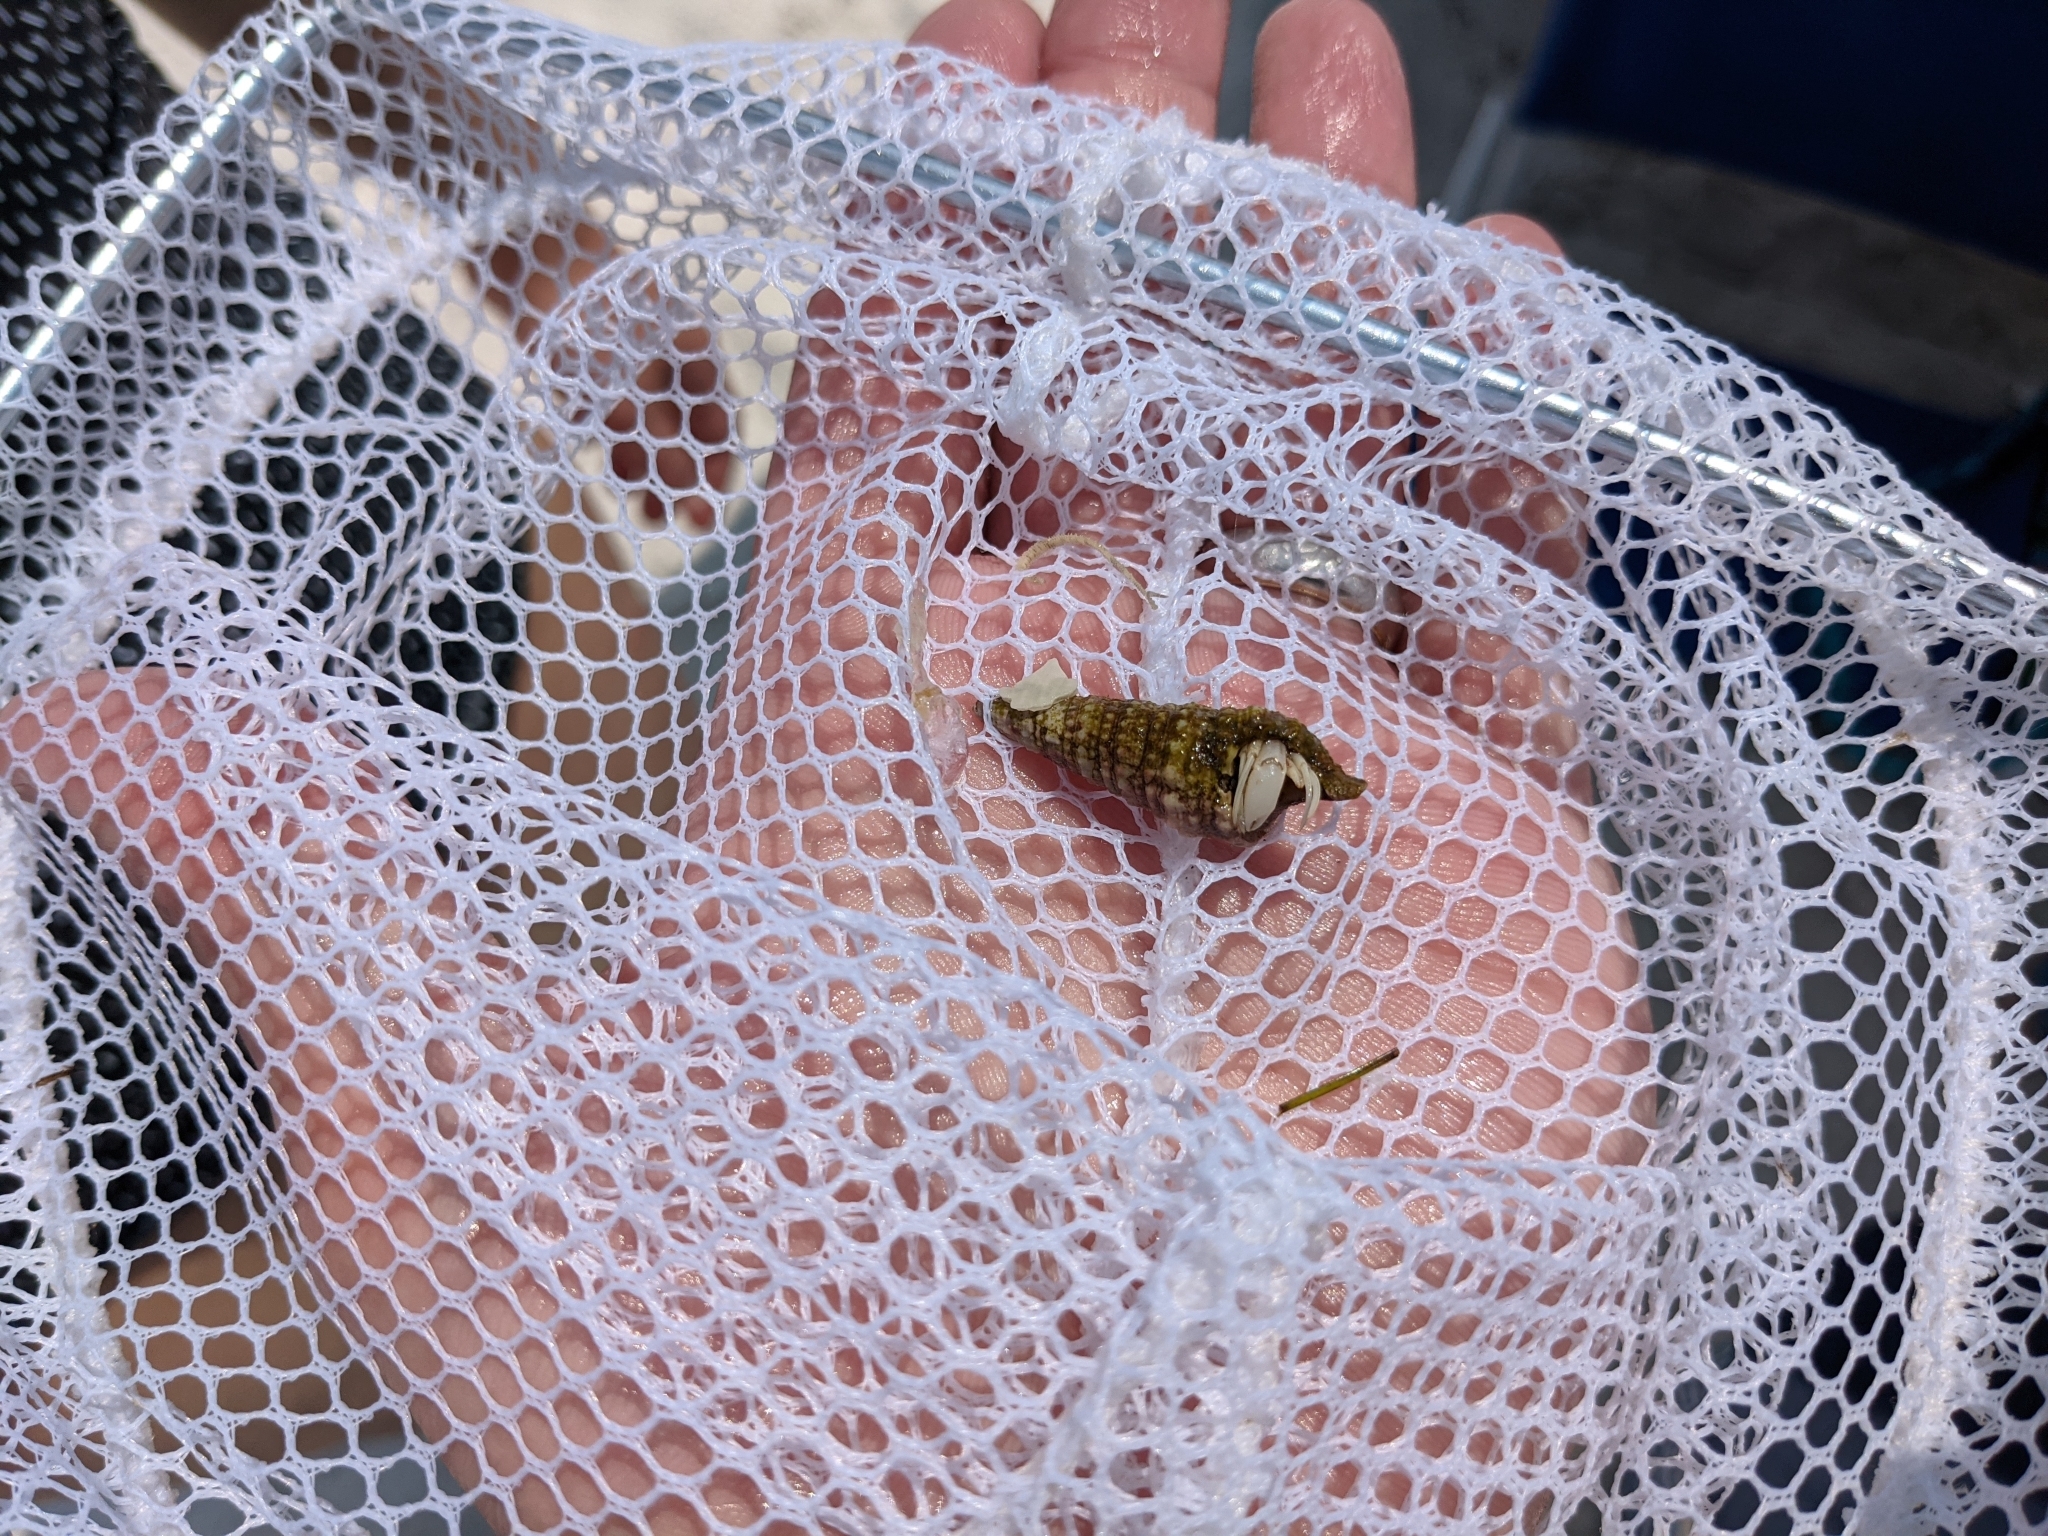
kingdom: Animalia
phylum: Arthropoda
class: Malacostraca
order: Decapoda
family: Paguridae
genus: Pagurus
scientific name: Pagurus longicarpus
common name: Long-armed hermit crab
